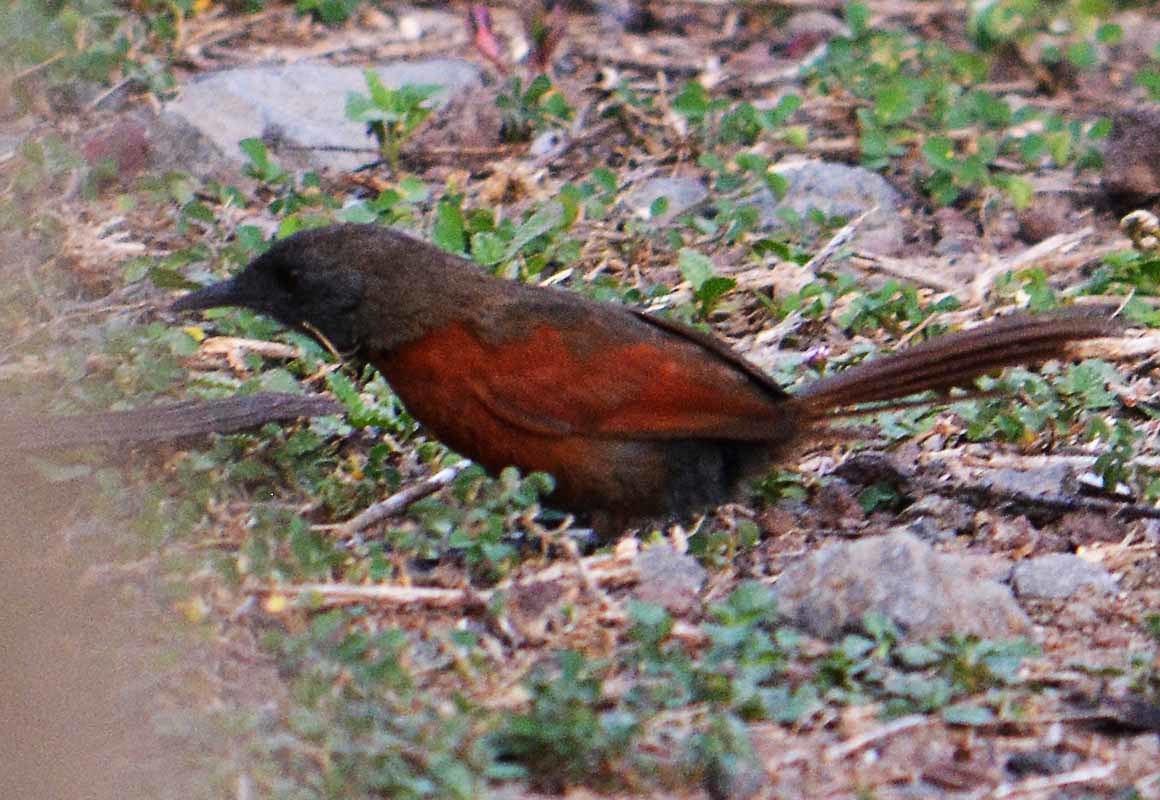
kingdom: Animalia
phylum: Chordata
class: Aves
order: Passeriformes
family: Furnariidae
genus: Synallaxis
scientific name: Synallaxis erythrothorax
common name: Rufous-breasted spinetail
